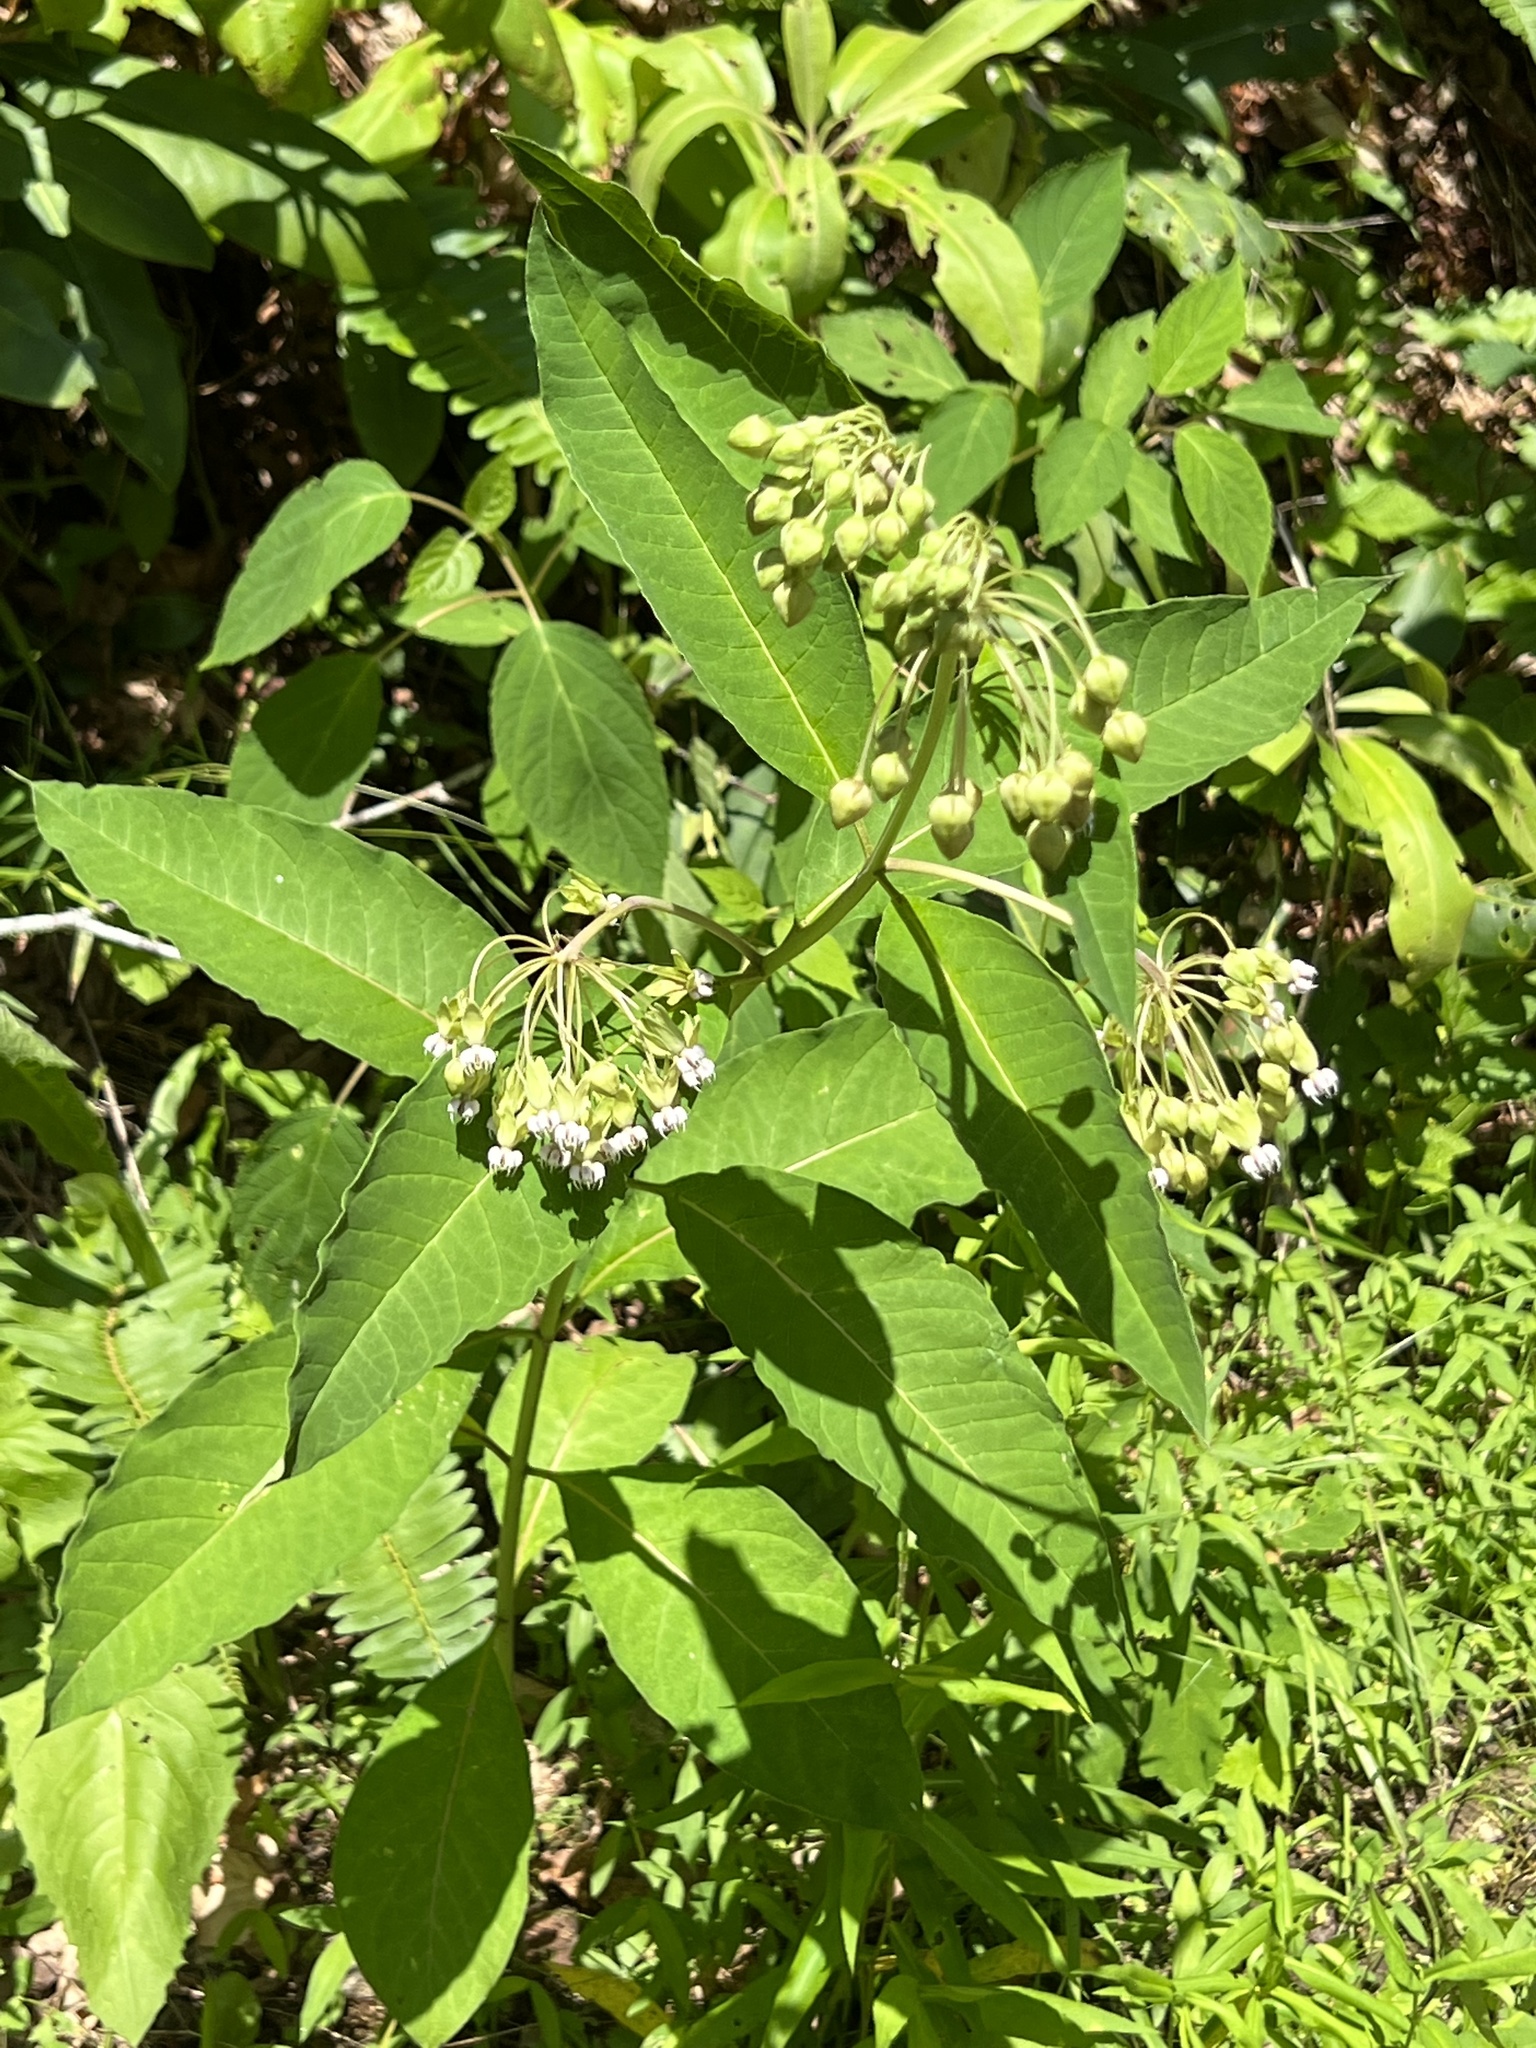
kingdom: Plantae
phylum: Tracheophyta
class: Magnoliopsida
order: Gentianales
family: Apocynaceae
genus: Asclepias
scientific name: Asclepias exaltata
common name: Poke milkweed
